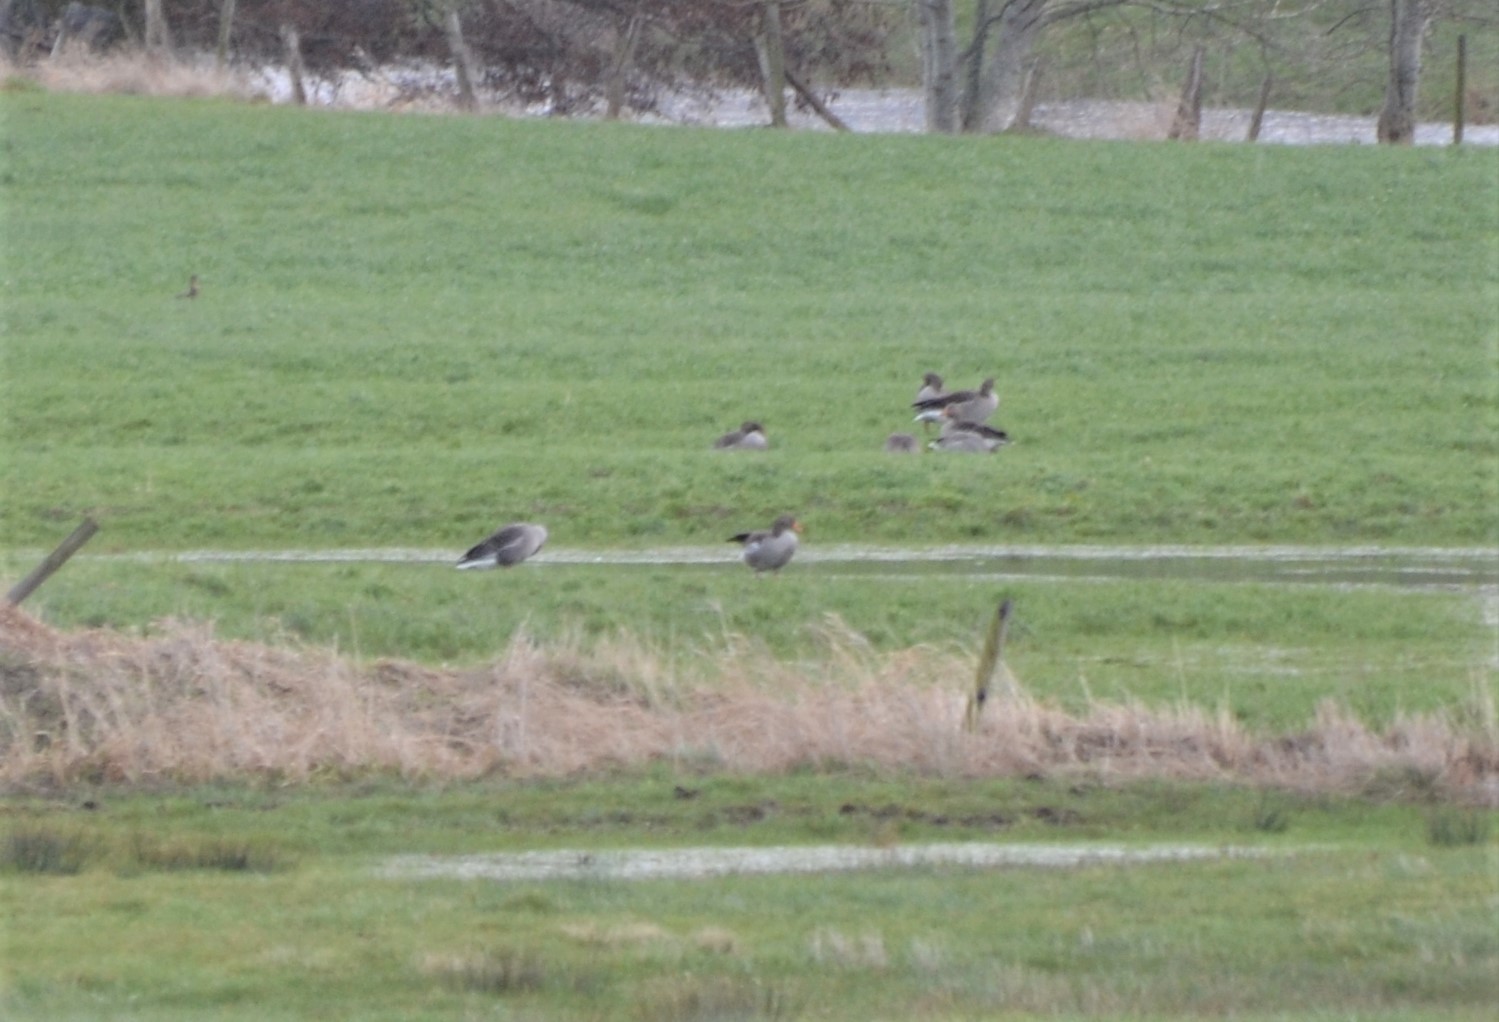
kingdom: Animalia
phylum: Chordata
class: Aves
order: Anseriformes
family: Anatidae
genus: Anser
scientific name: Anser anser
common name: Greylag goose
